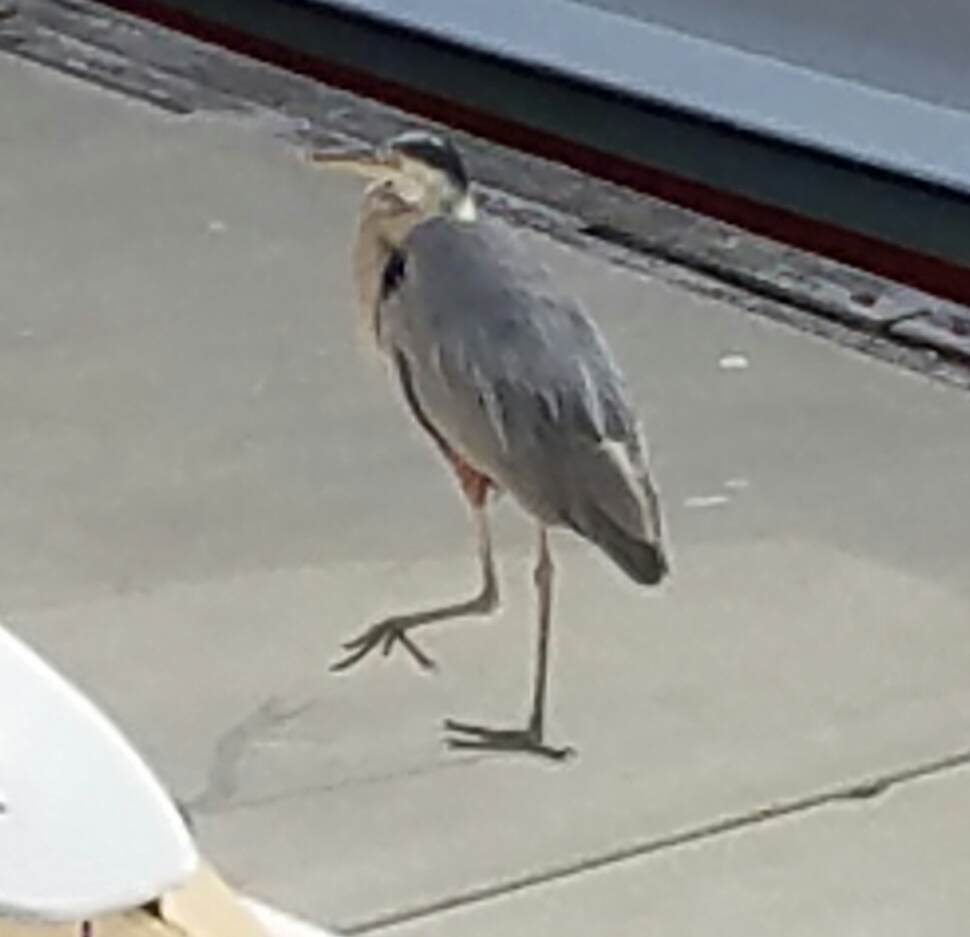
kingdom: Animalia
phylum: Chordata
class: Aves
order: Pelecaniformes
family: Ardeidae
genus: Ardea
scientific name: Ardea herodias
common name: Great blue heron
